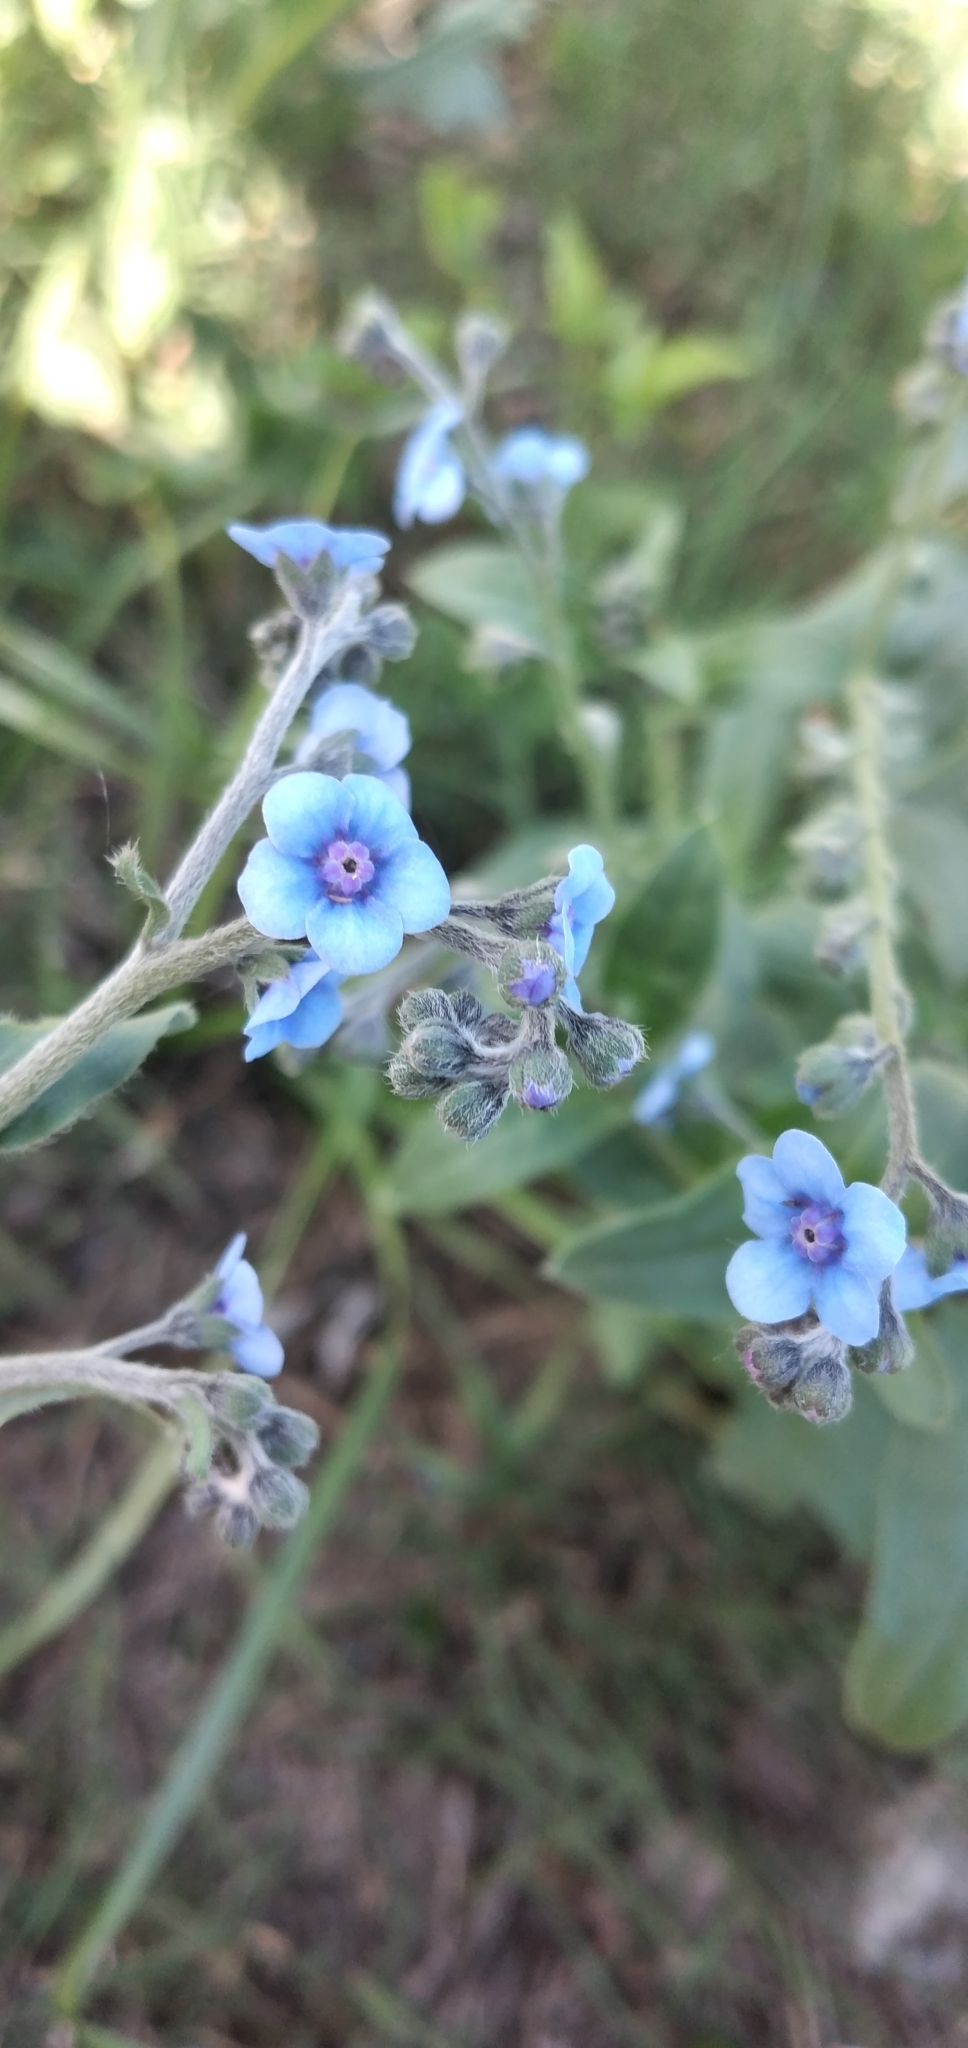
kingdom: Plantae
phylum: Tracheophyta
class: Magnoliopsida
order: Boraginales
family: Boraginaceae
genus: Cynoglossum
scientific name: Cynoglossum amabile
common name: Chinese hound's tongue
